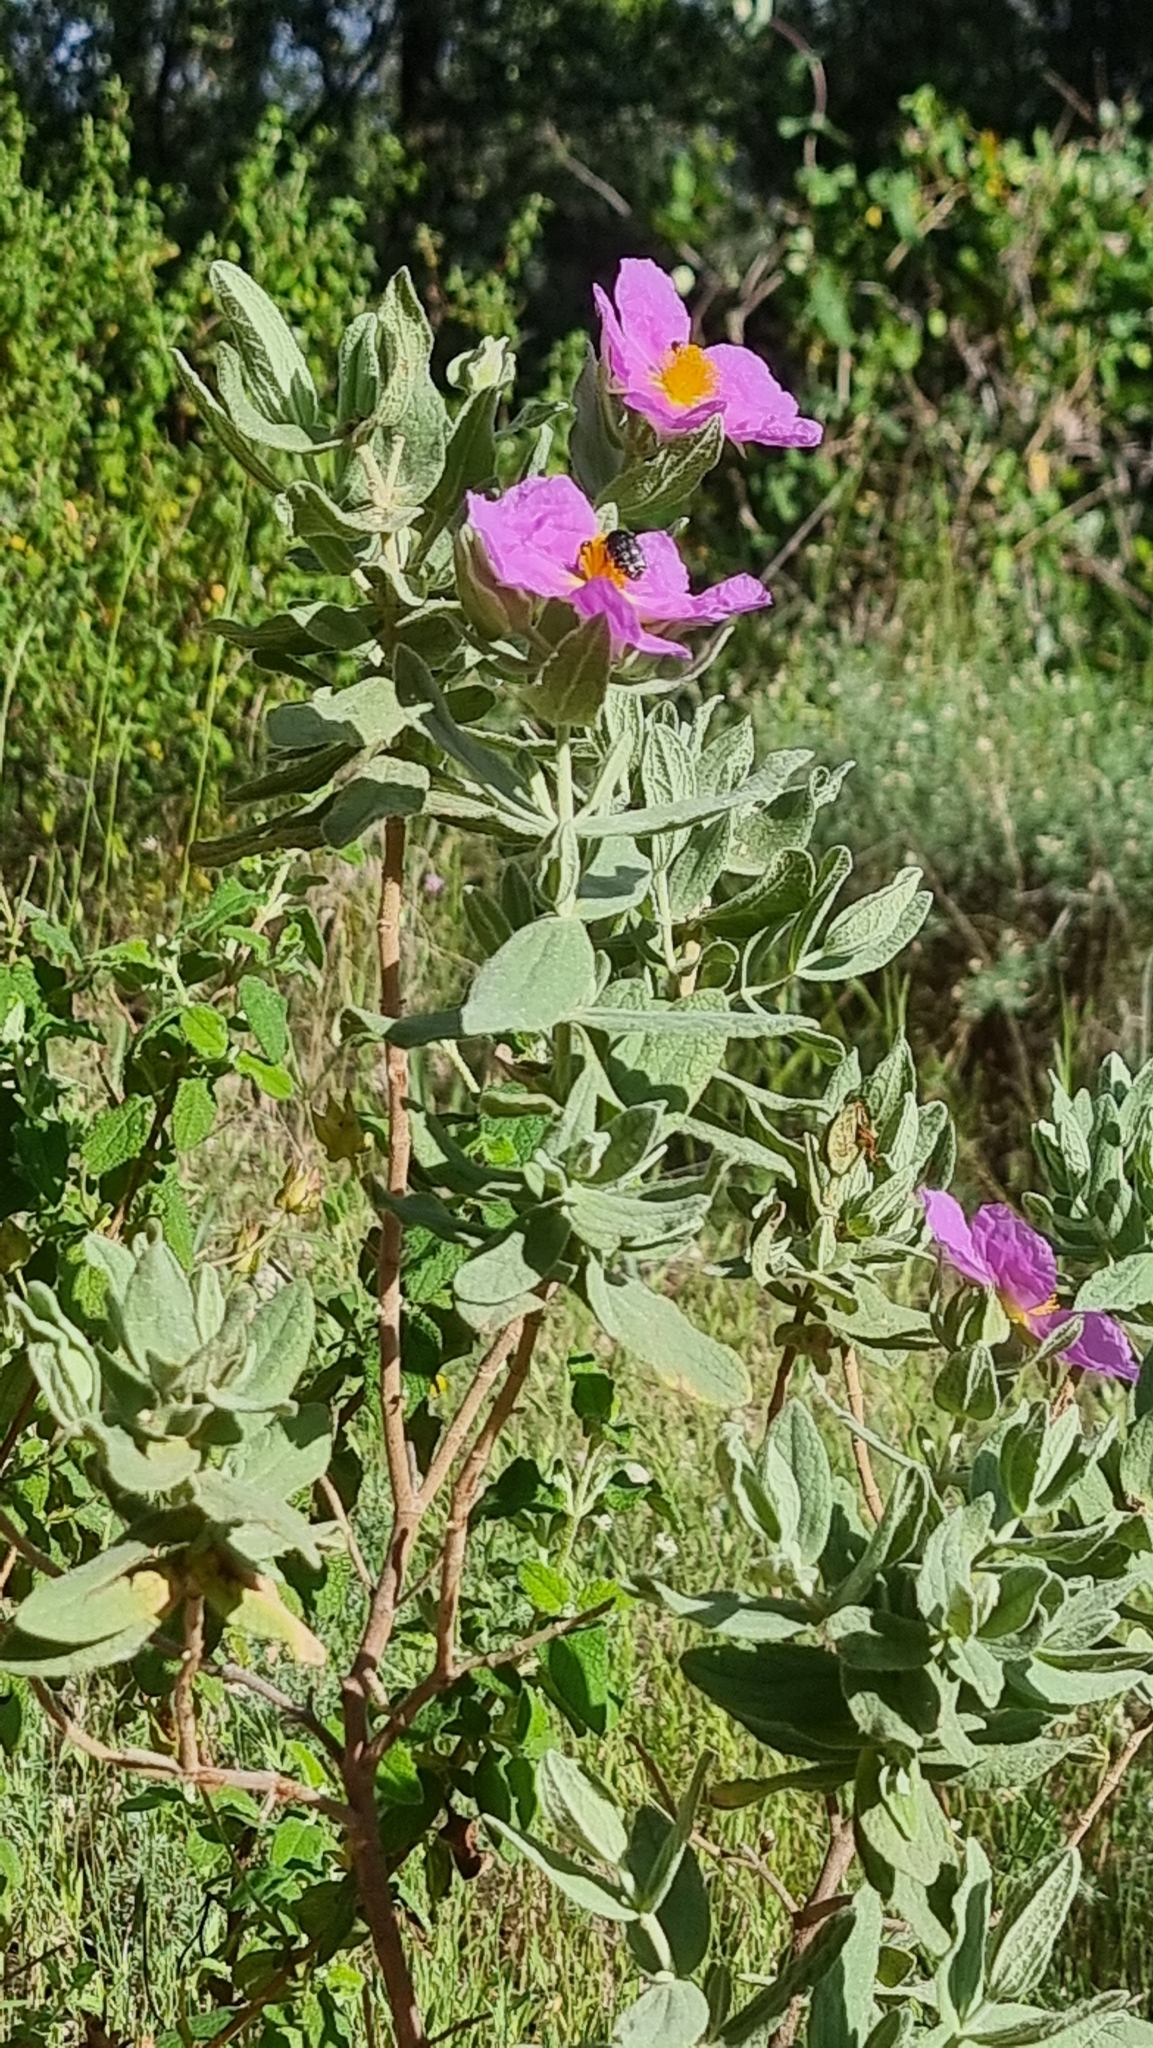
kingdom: Plantae
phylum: Tracheophyta
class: Magnoliopsida
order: Malvales
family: Cistaceae
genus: Cistus
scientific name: Cistus albidus
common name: White-leaf rock-rose
